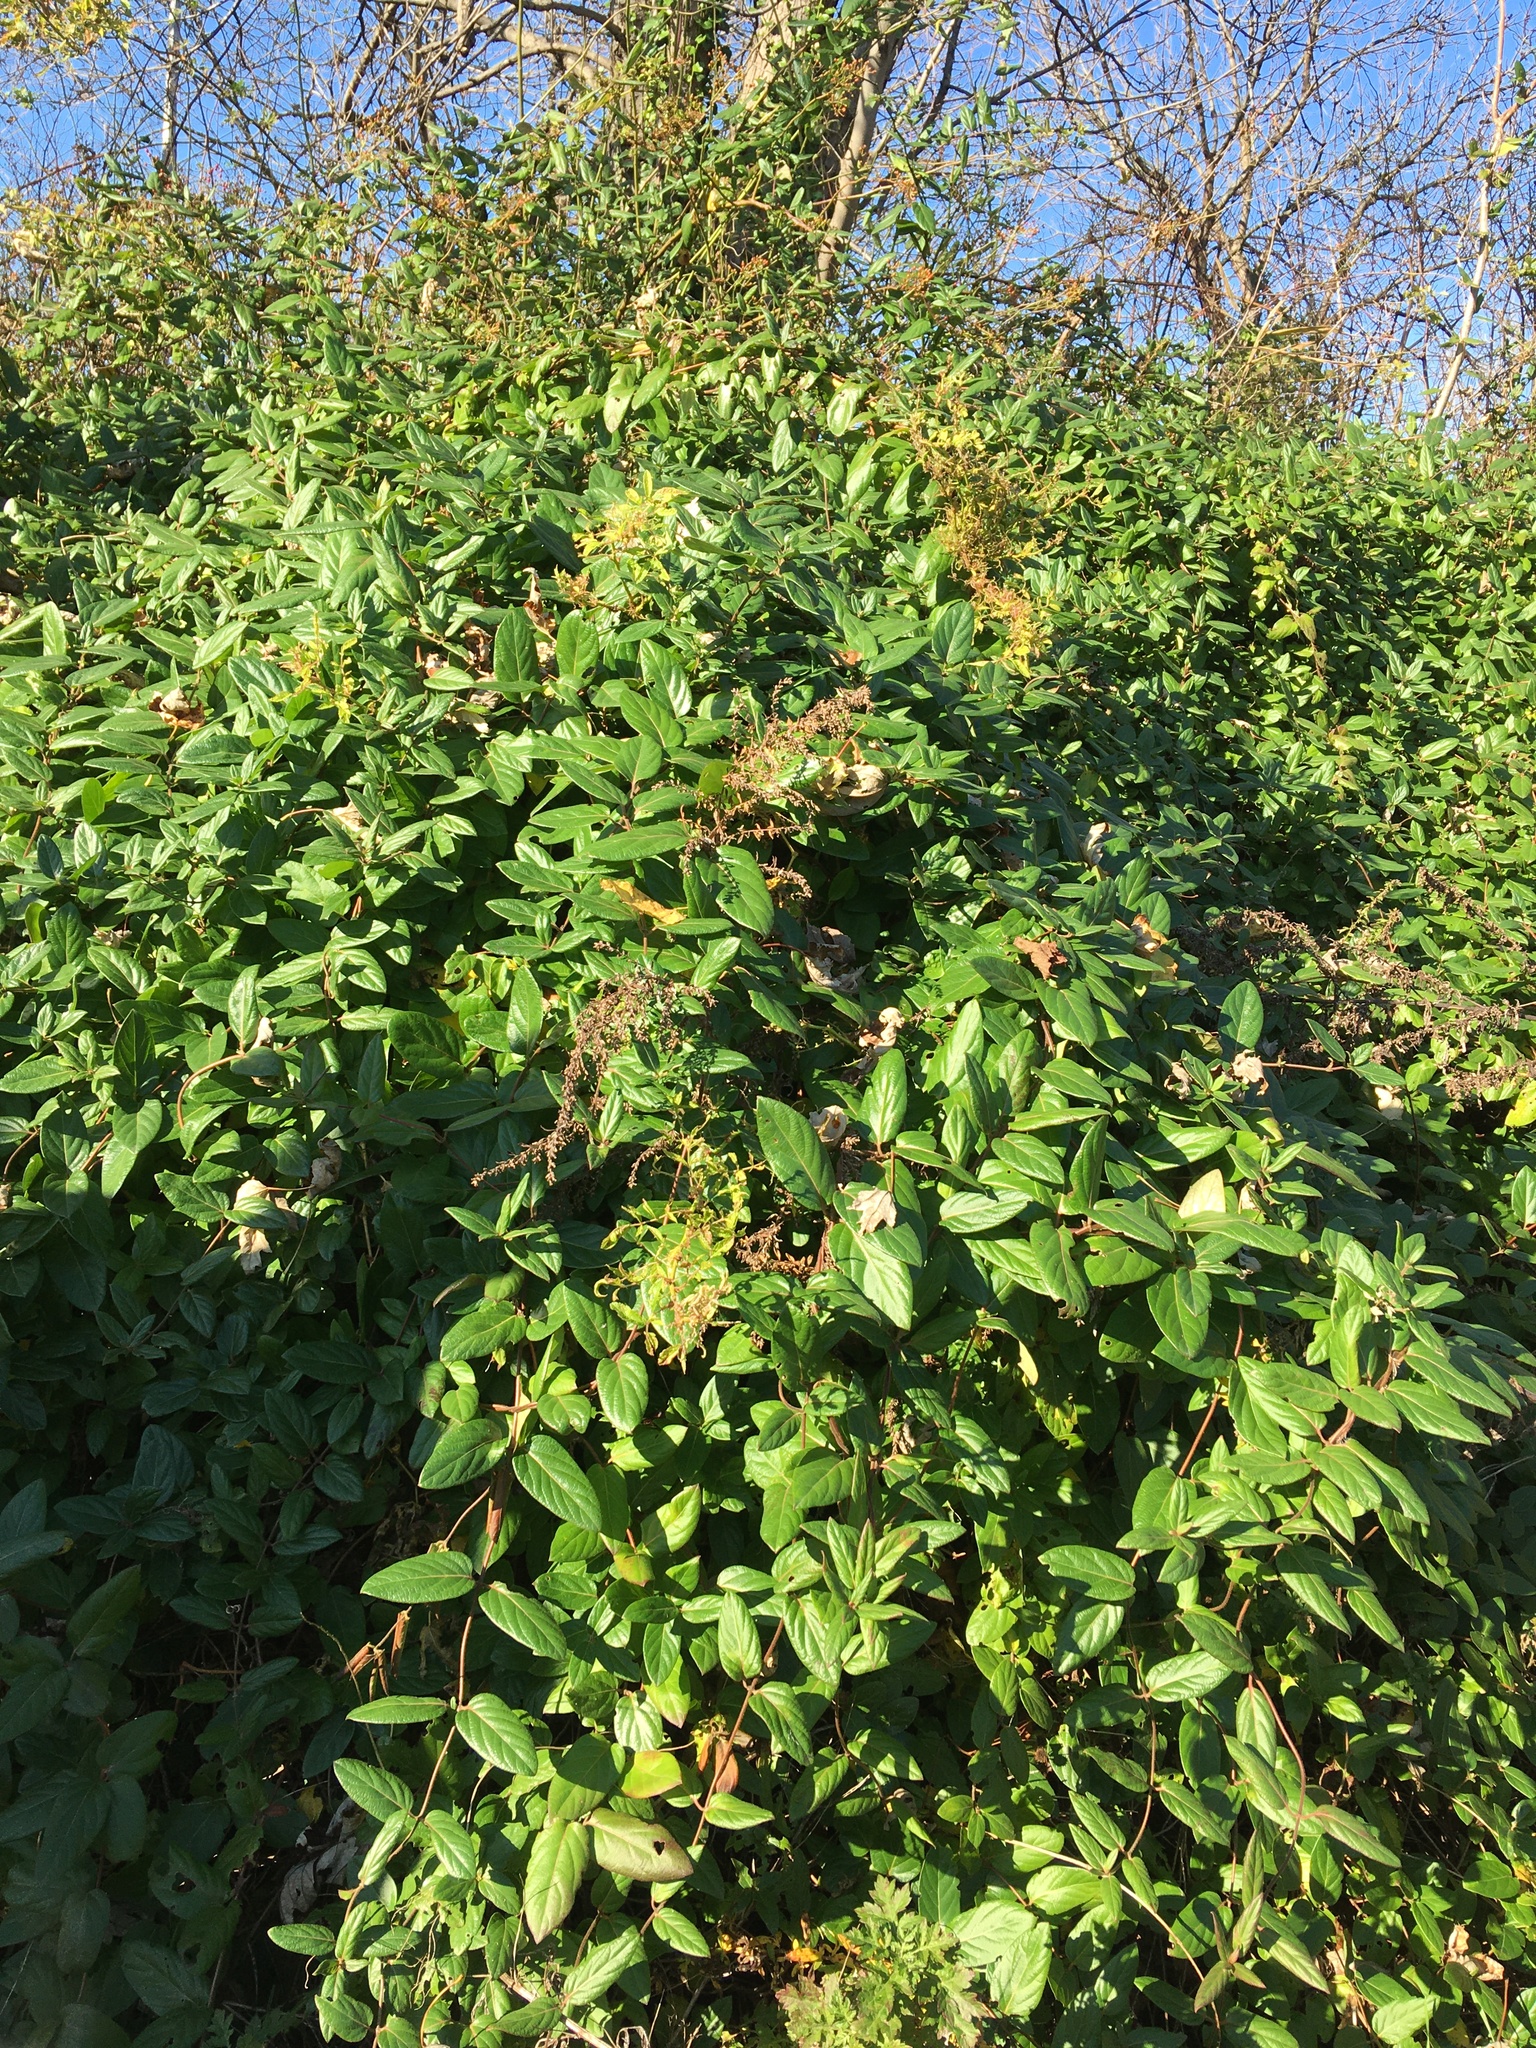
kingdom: Plantae
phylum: Tracheophyta
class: Magnoliopsida
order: Dipsacales
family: Caprifoliaceae
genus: Lonicera
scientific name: Lonicera japonica
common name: Japanese honeysuckle
